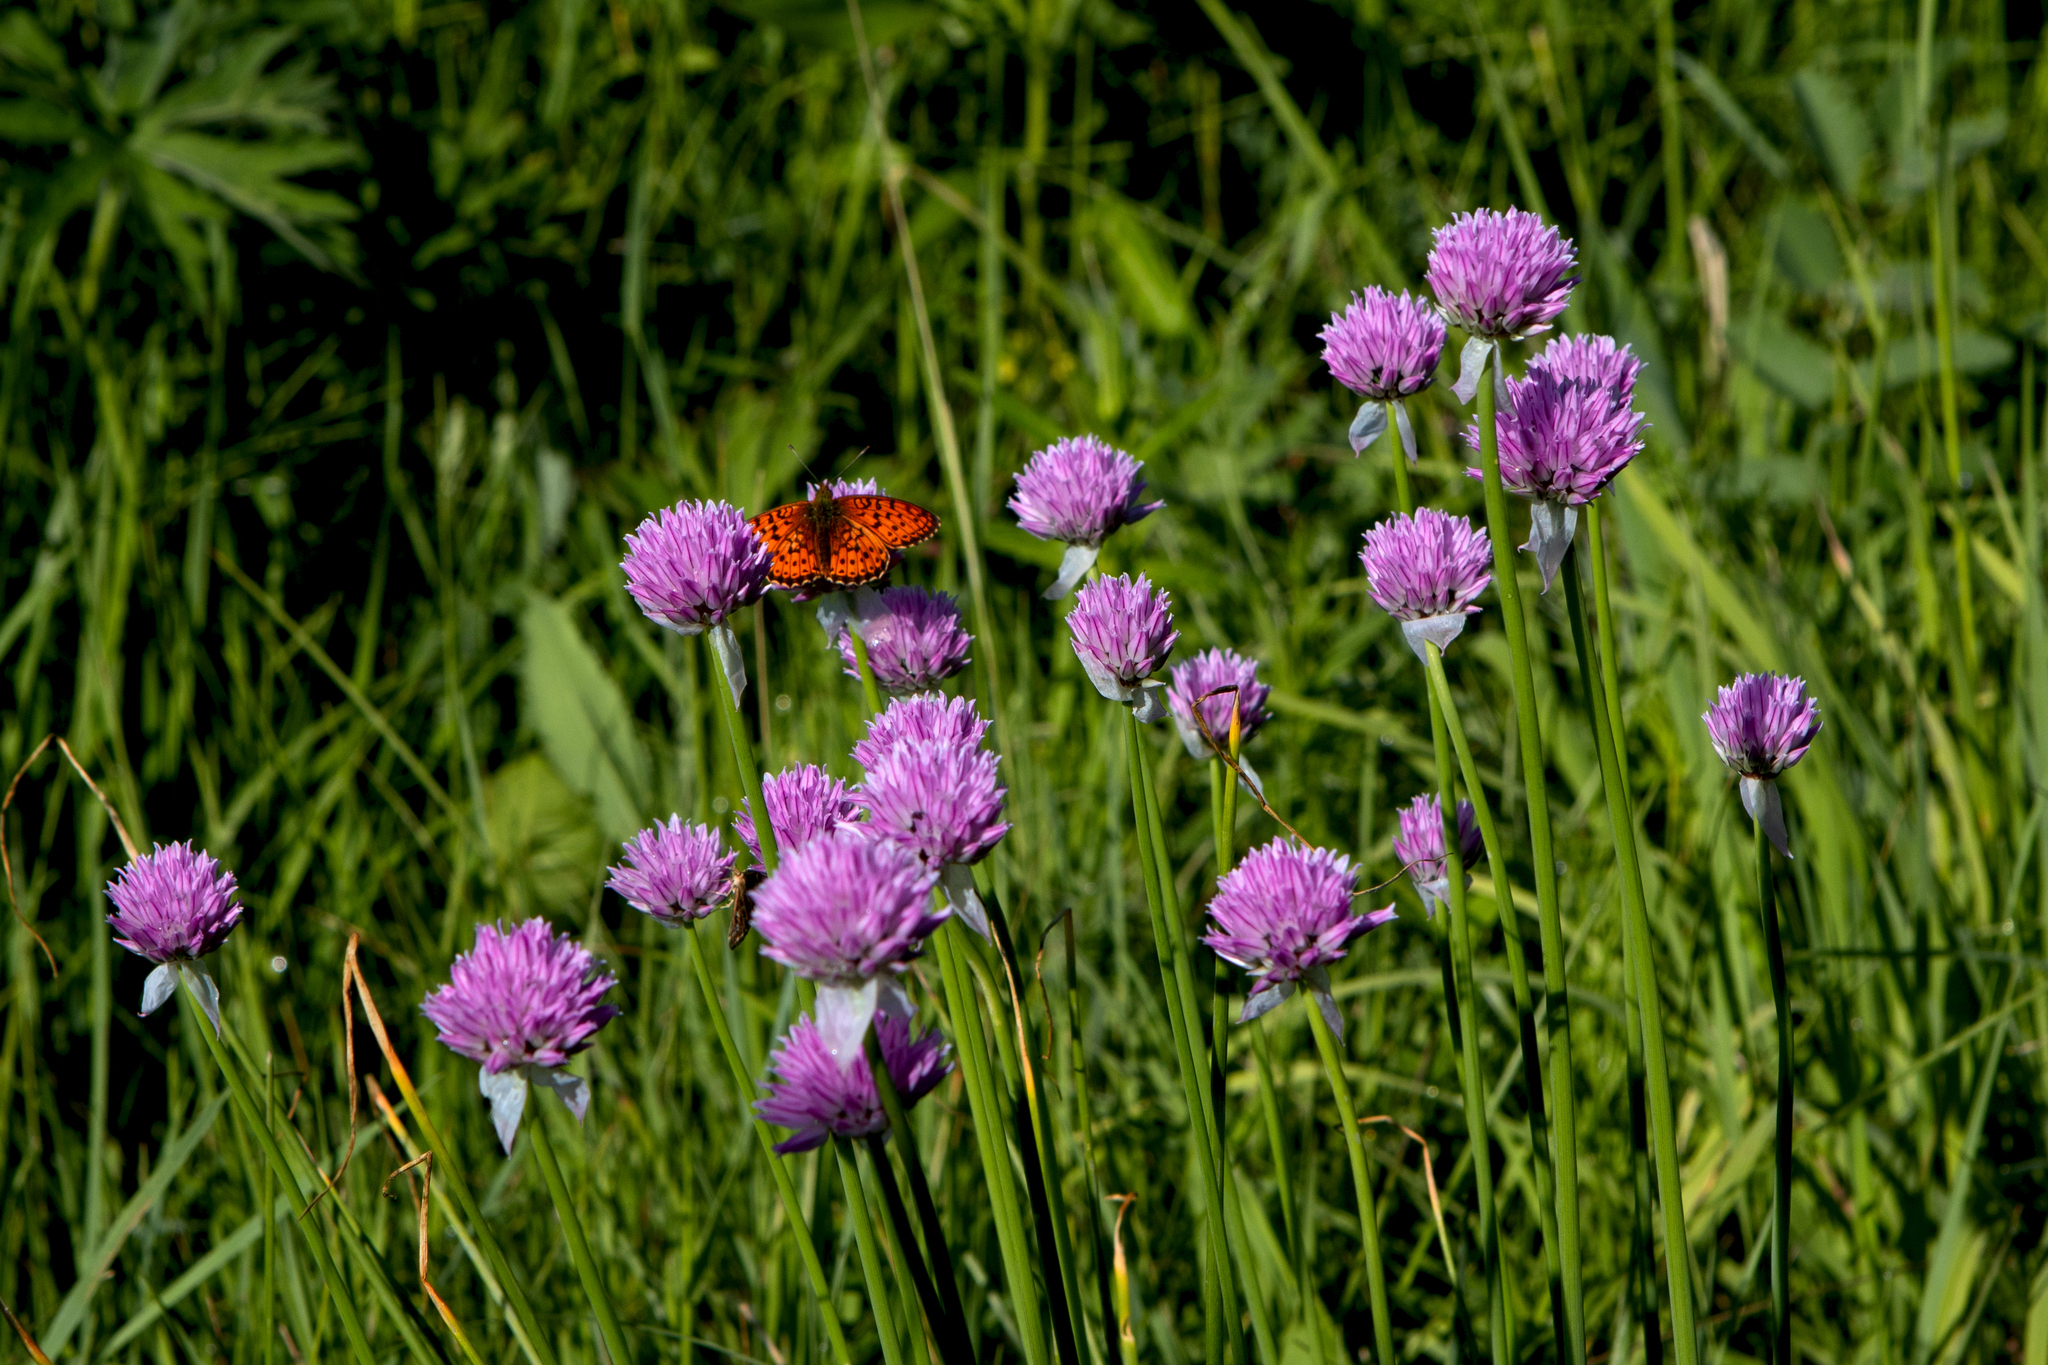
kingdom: Animalia
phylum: Arthropoda
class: Insecta
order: Lepidoptera
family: Nymphalidae
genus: Brenthis
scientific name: Brenthis ino
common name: Lesser marbled fritillary
